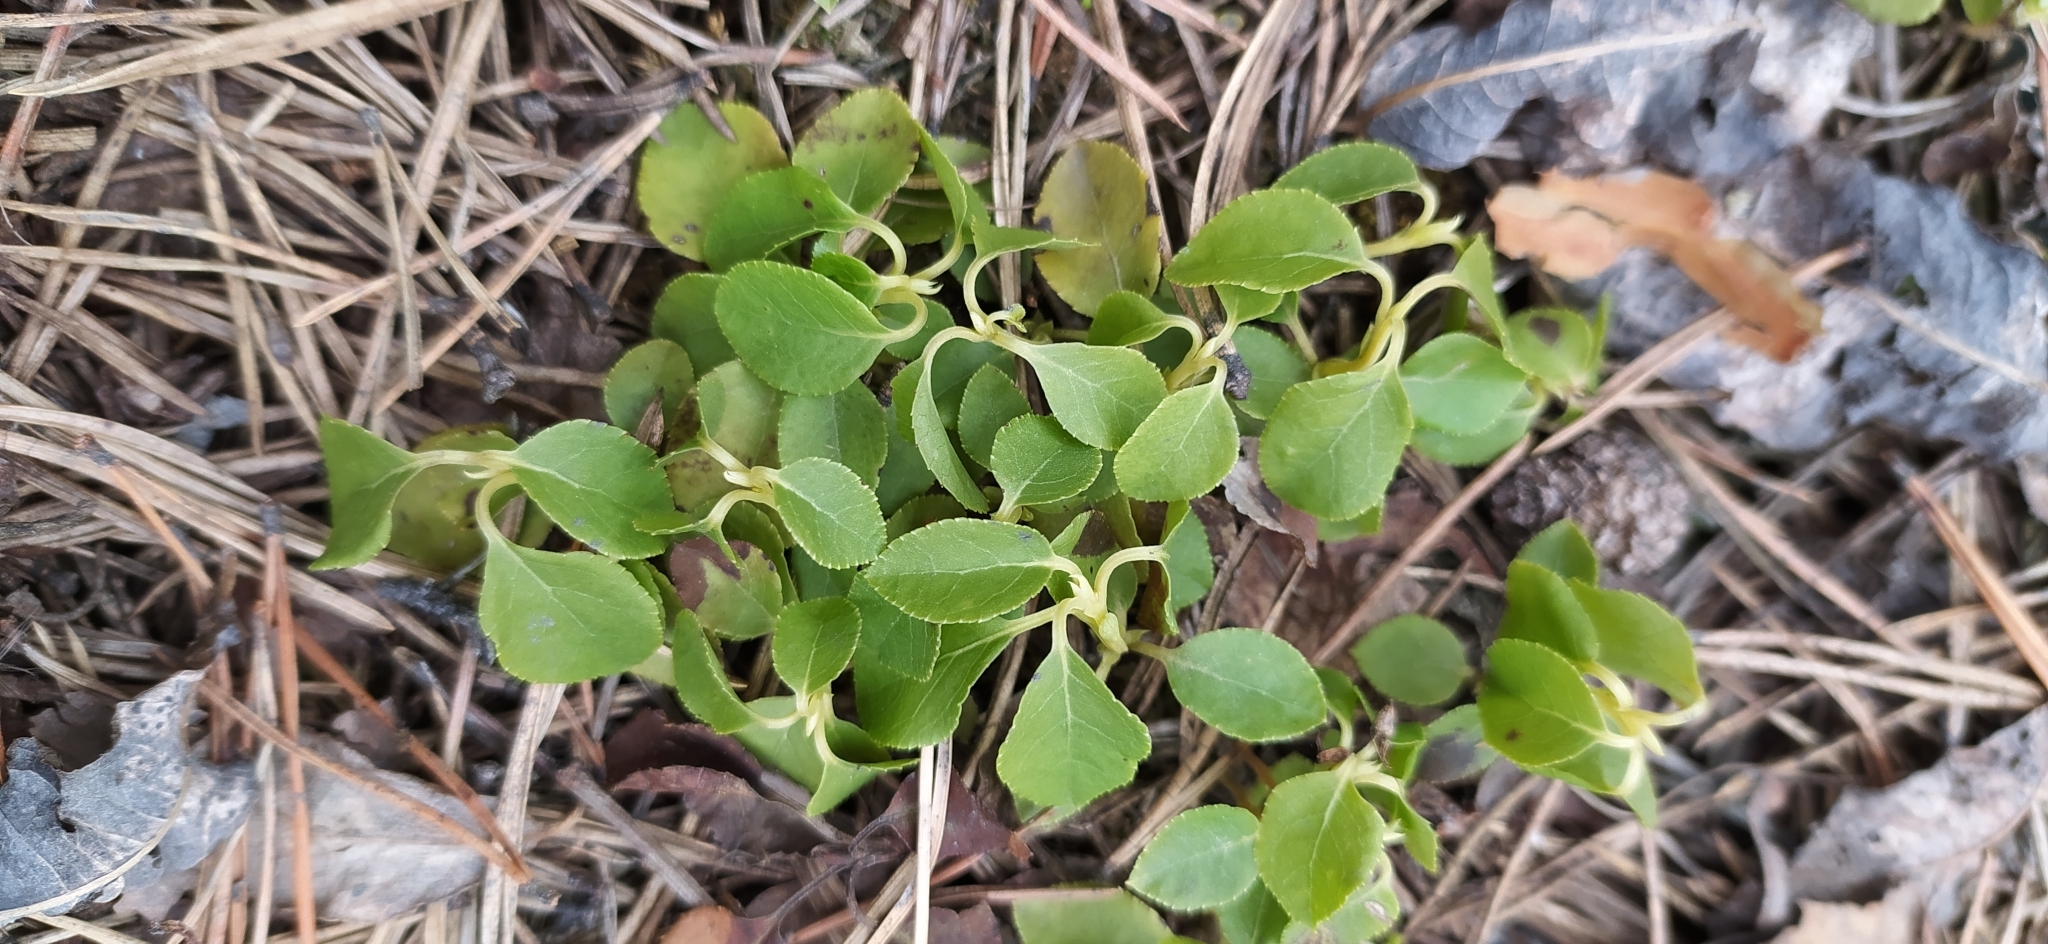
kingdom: Plantae
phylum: Tracheophyta
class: Magnoliopsida
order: Ericales
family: Ericaceae
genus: Orthilia
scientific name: Orthilia secunda
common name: One-sided orthilia
